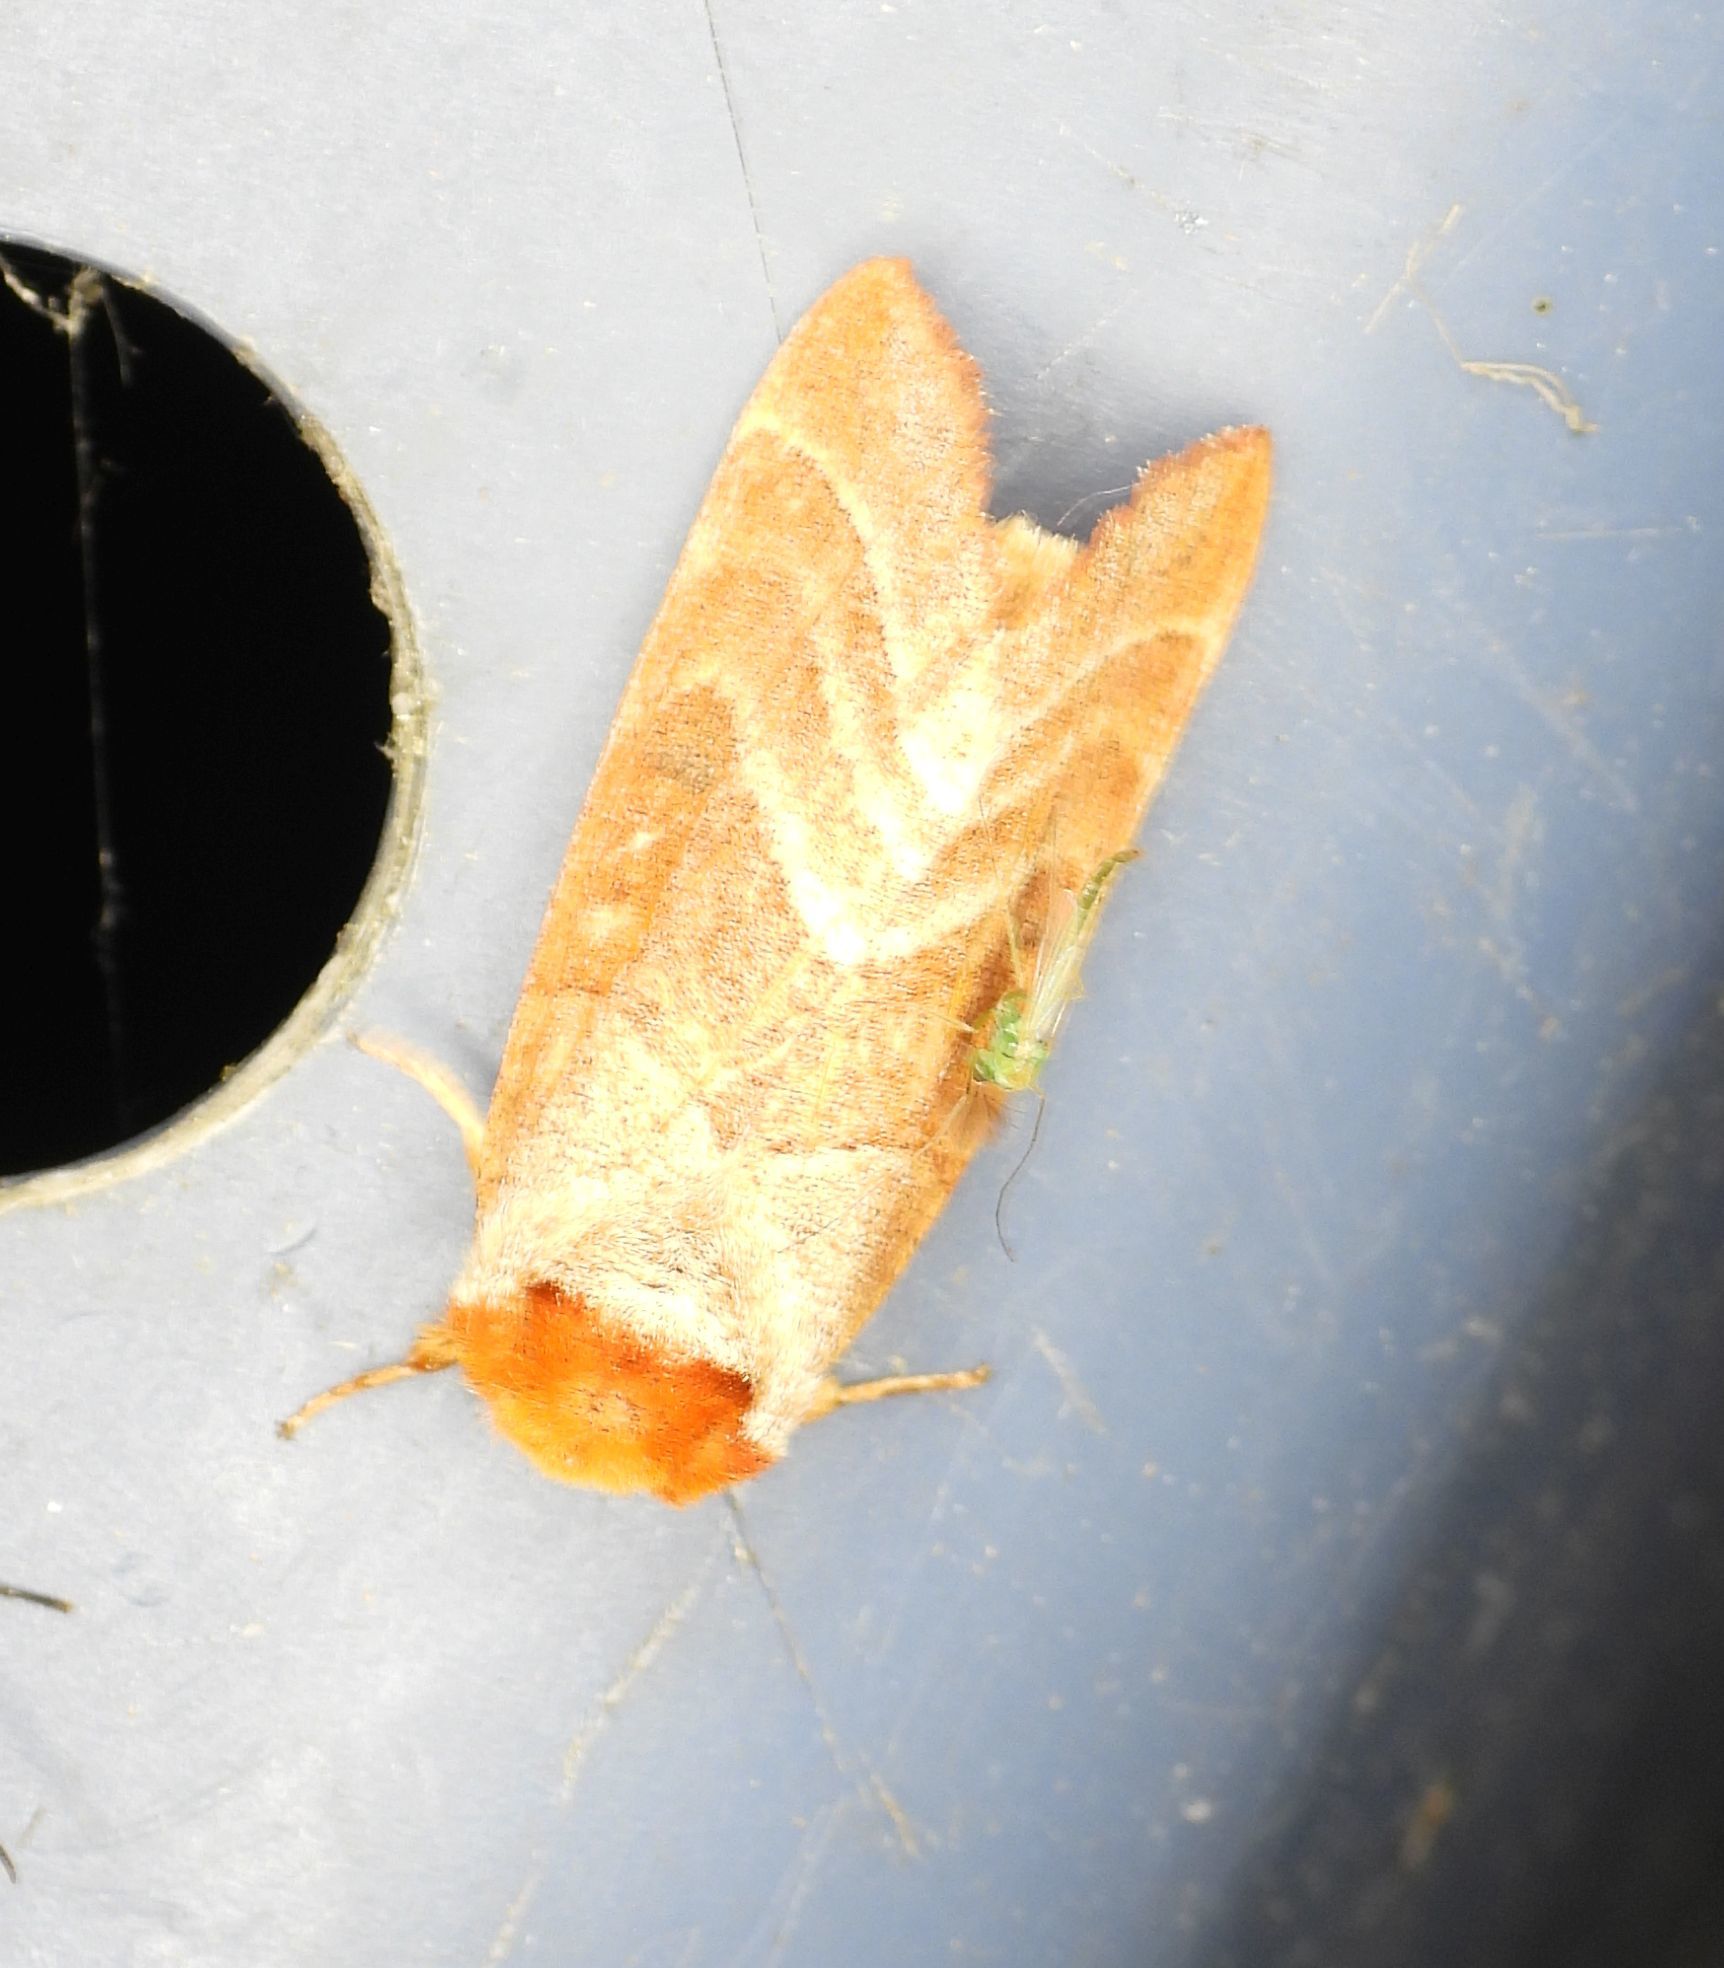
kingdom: Animalia
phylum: Arthropoda
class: Insecta
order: Lepidoptera
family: Notodontidae
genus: Datana
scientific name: Datana integerrima
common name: Walnut caterpillar
